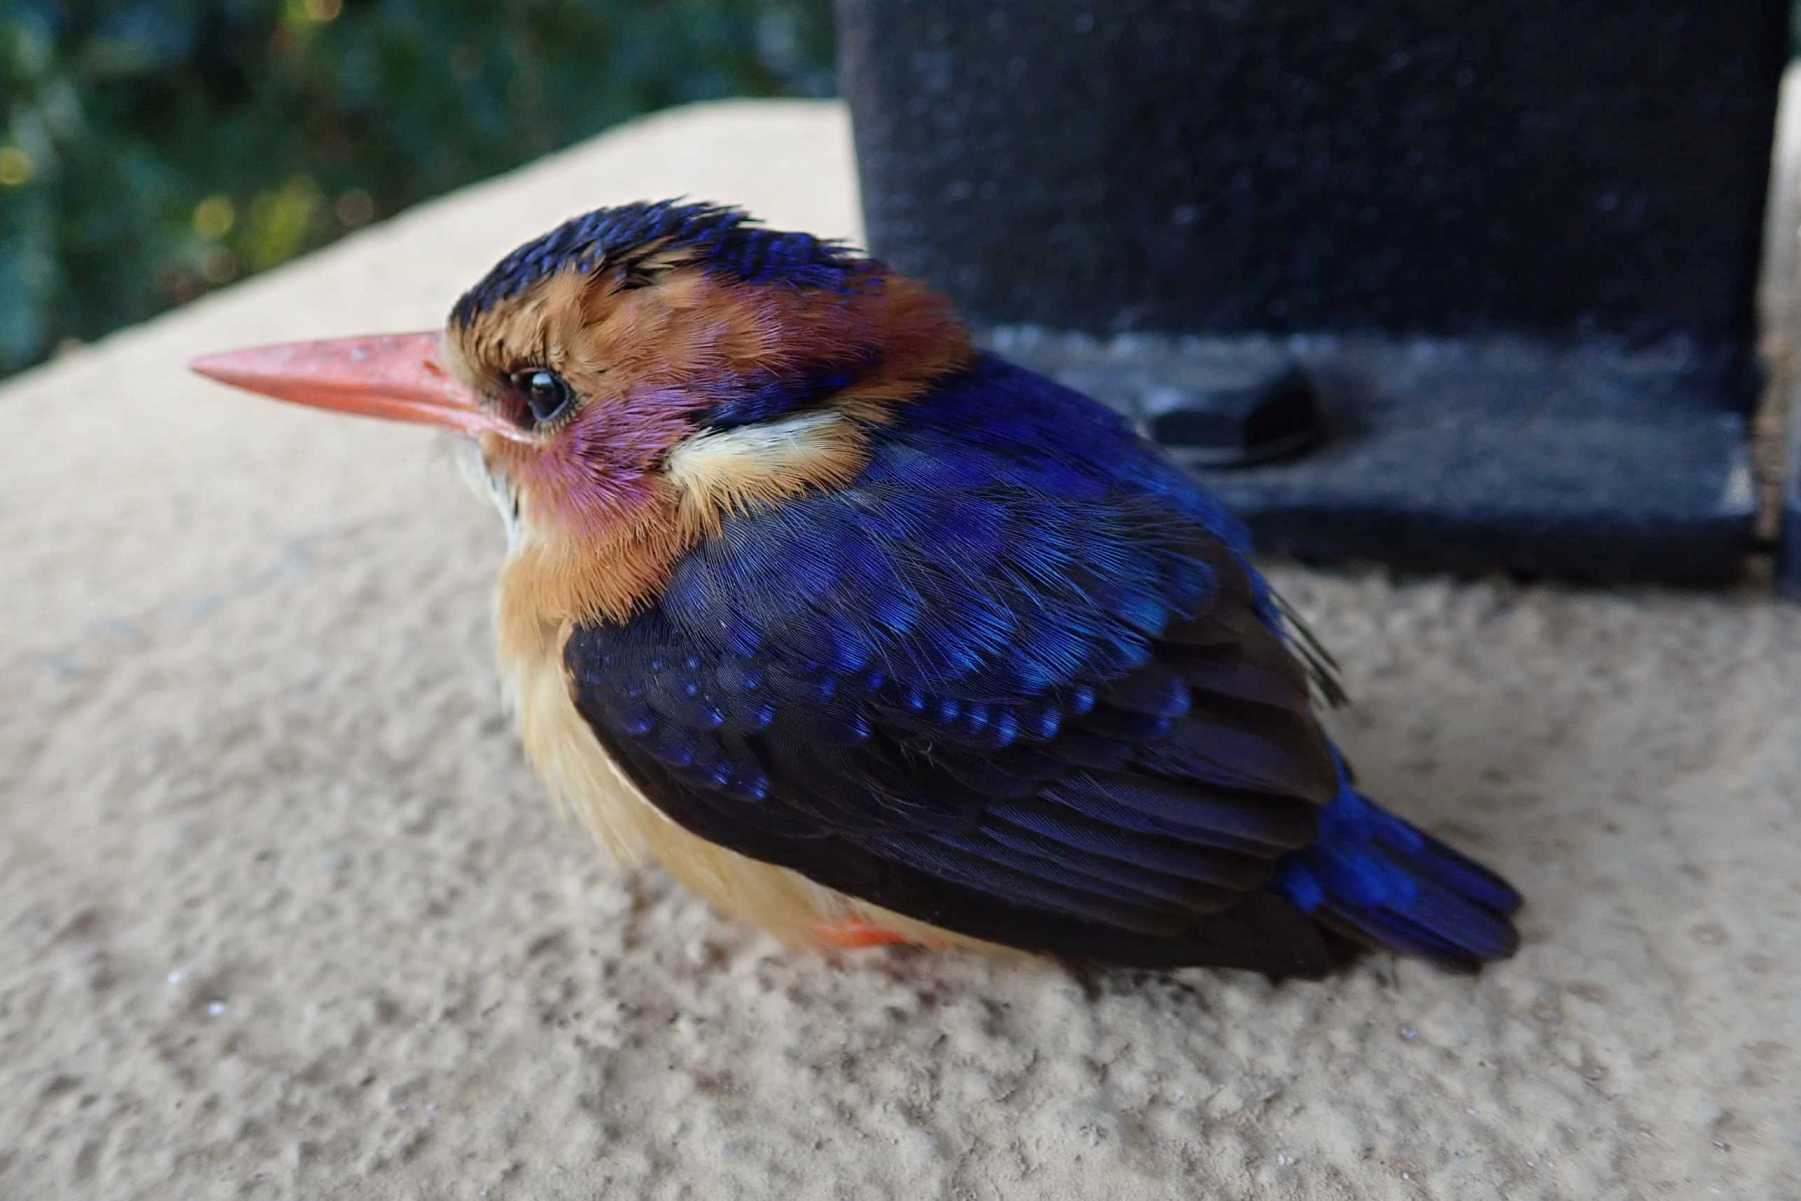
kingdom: Animalia
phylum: Chordata
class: Aves
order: Coraciiformes
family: Alcedinidae
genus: Ispidina
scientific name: Ispidina picta
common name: African pygmy-kingfisher
